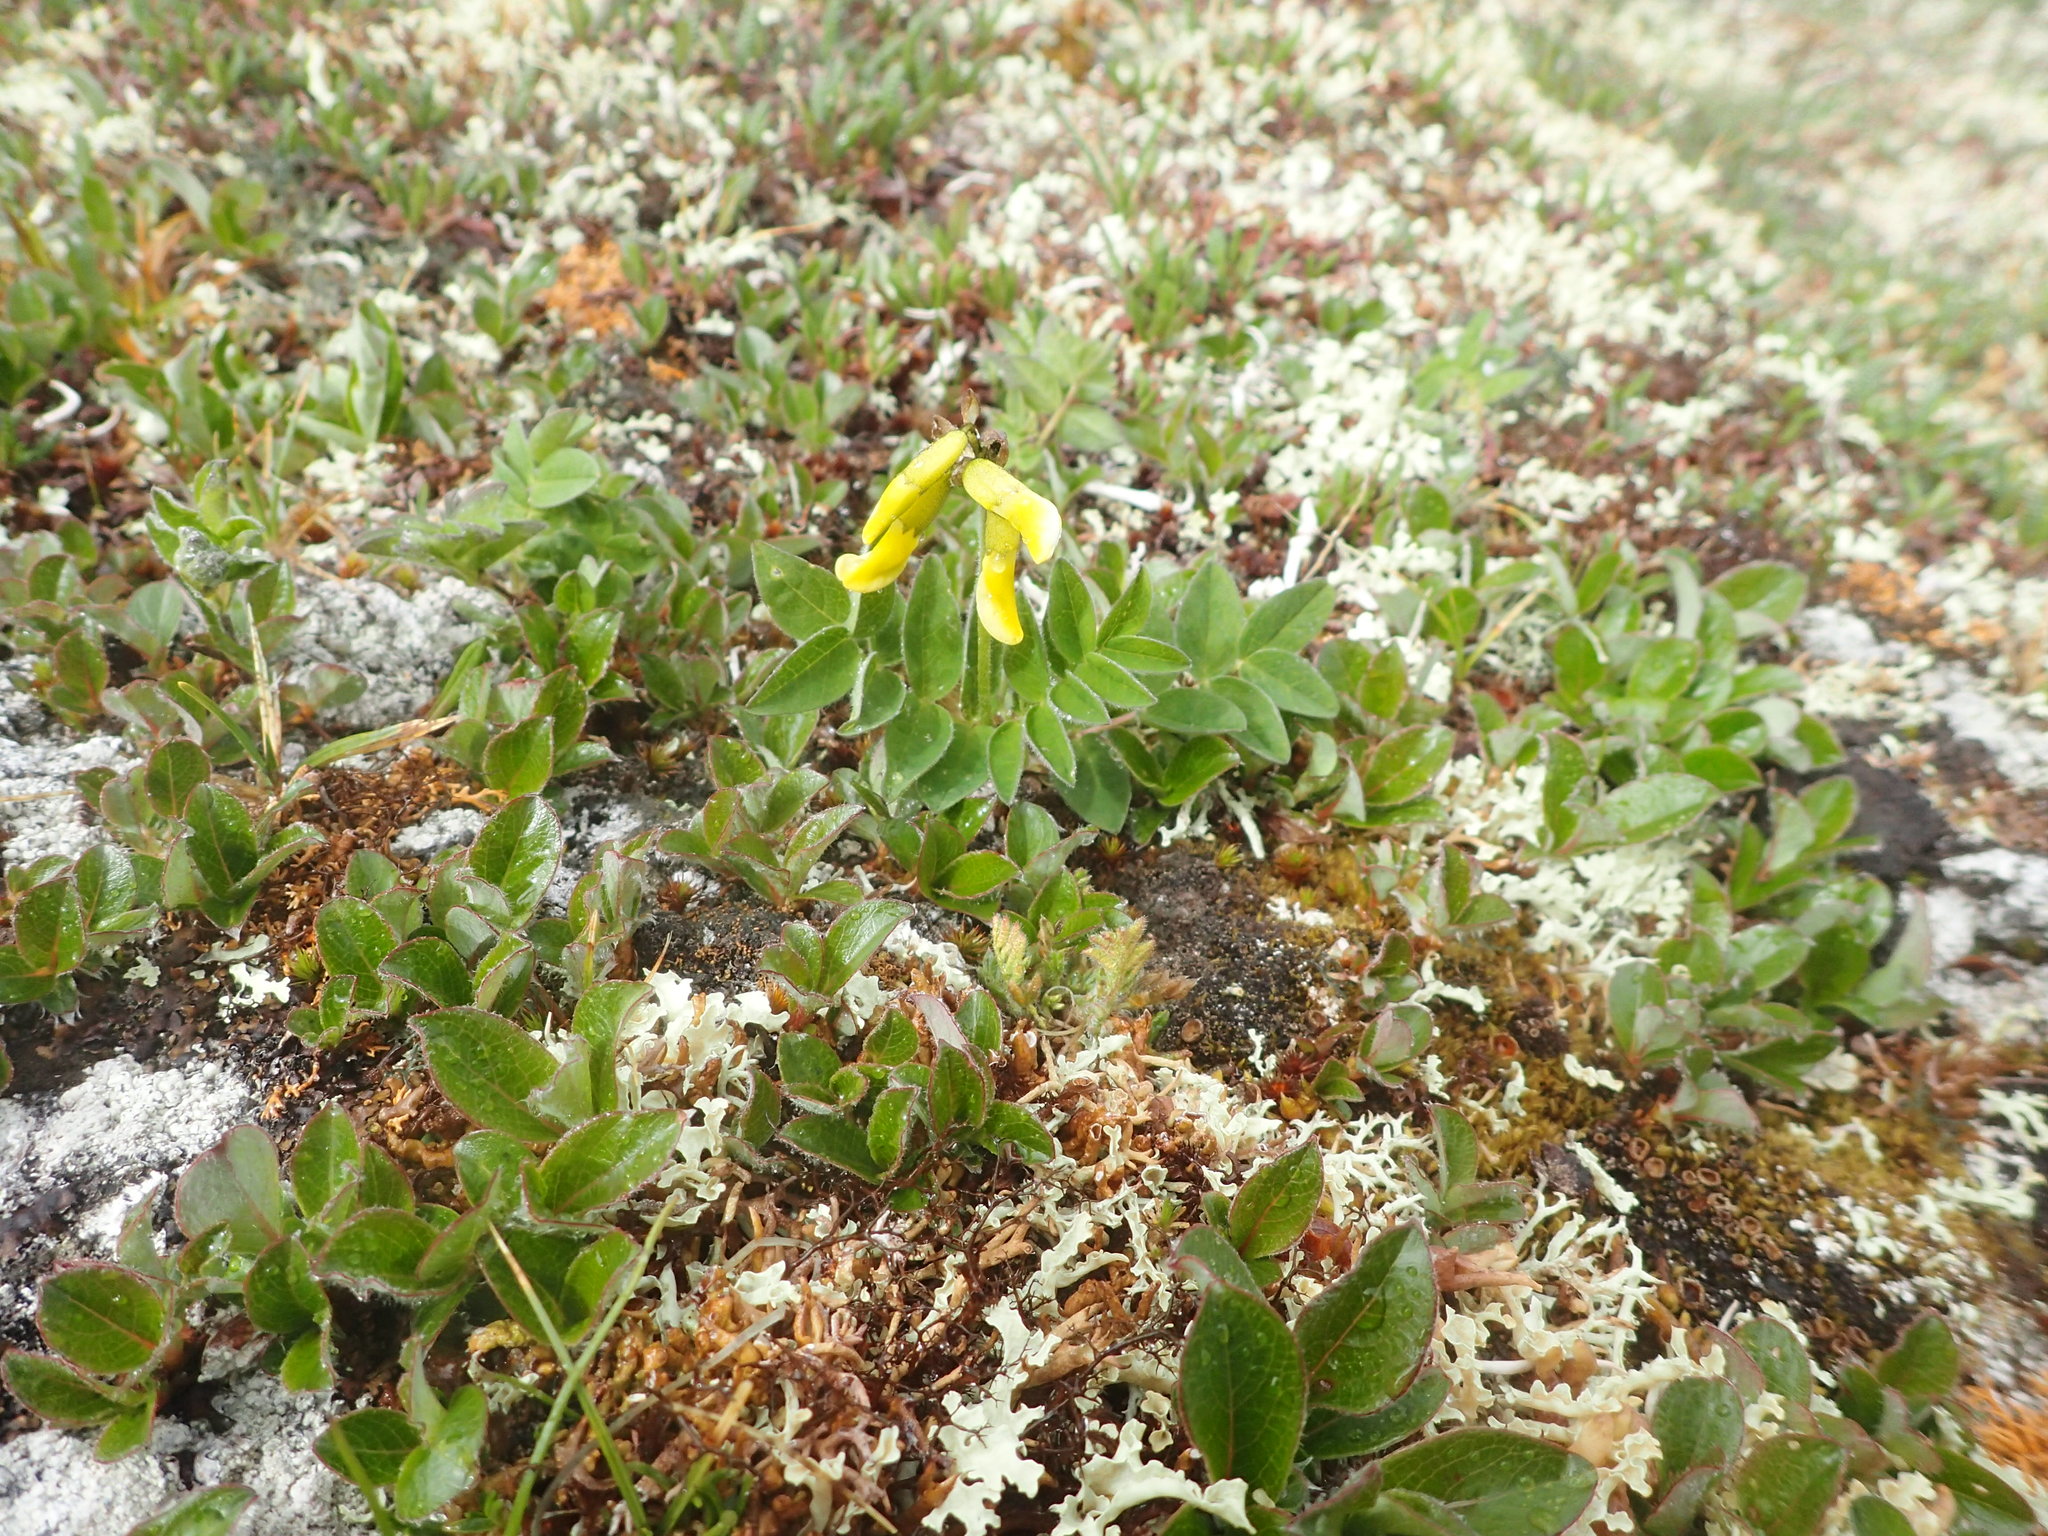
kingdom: Plantae
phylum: Tracheophyta
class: Magnoliopsida
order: Fabales
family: Fabaceae
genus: Astragalus
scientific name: Astragalus umbellatus
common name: Tundra milk-vetch
